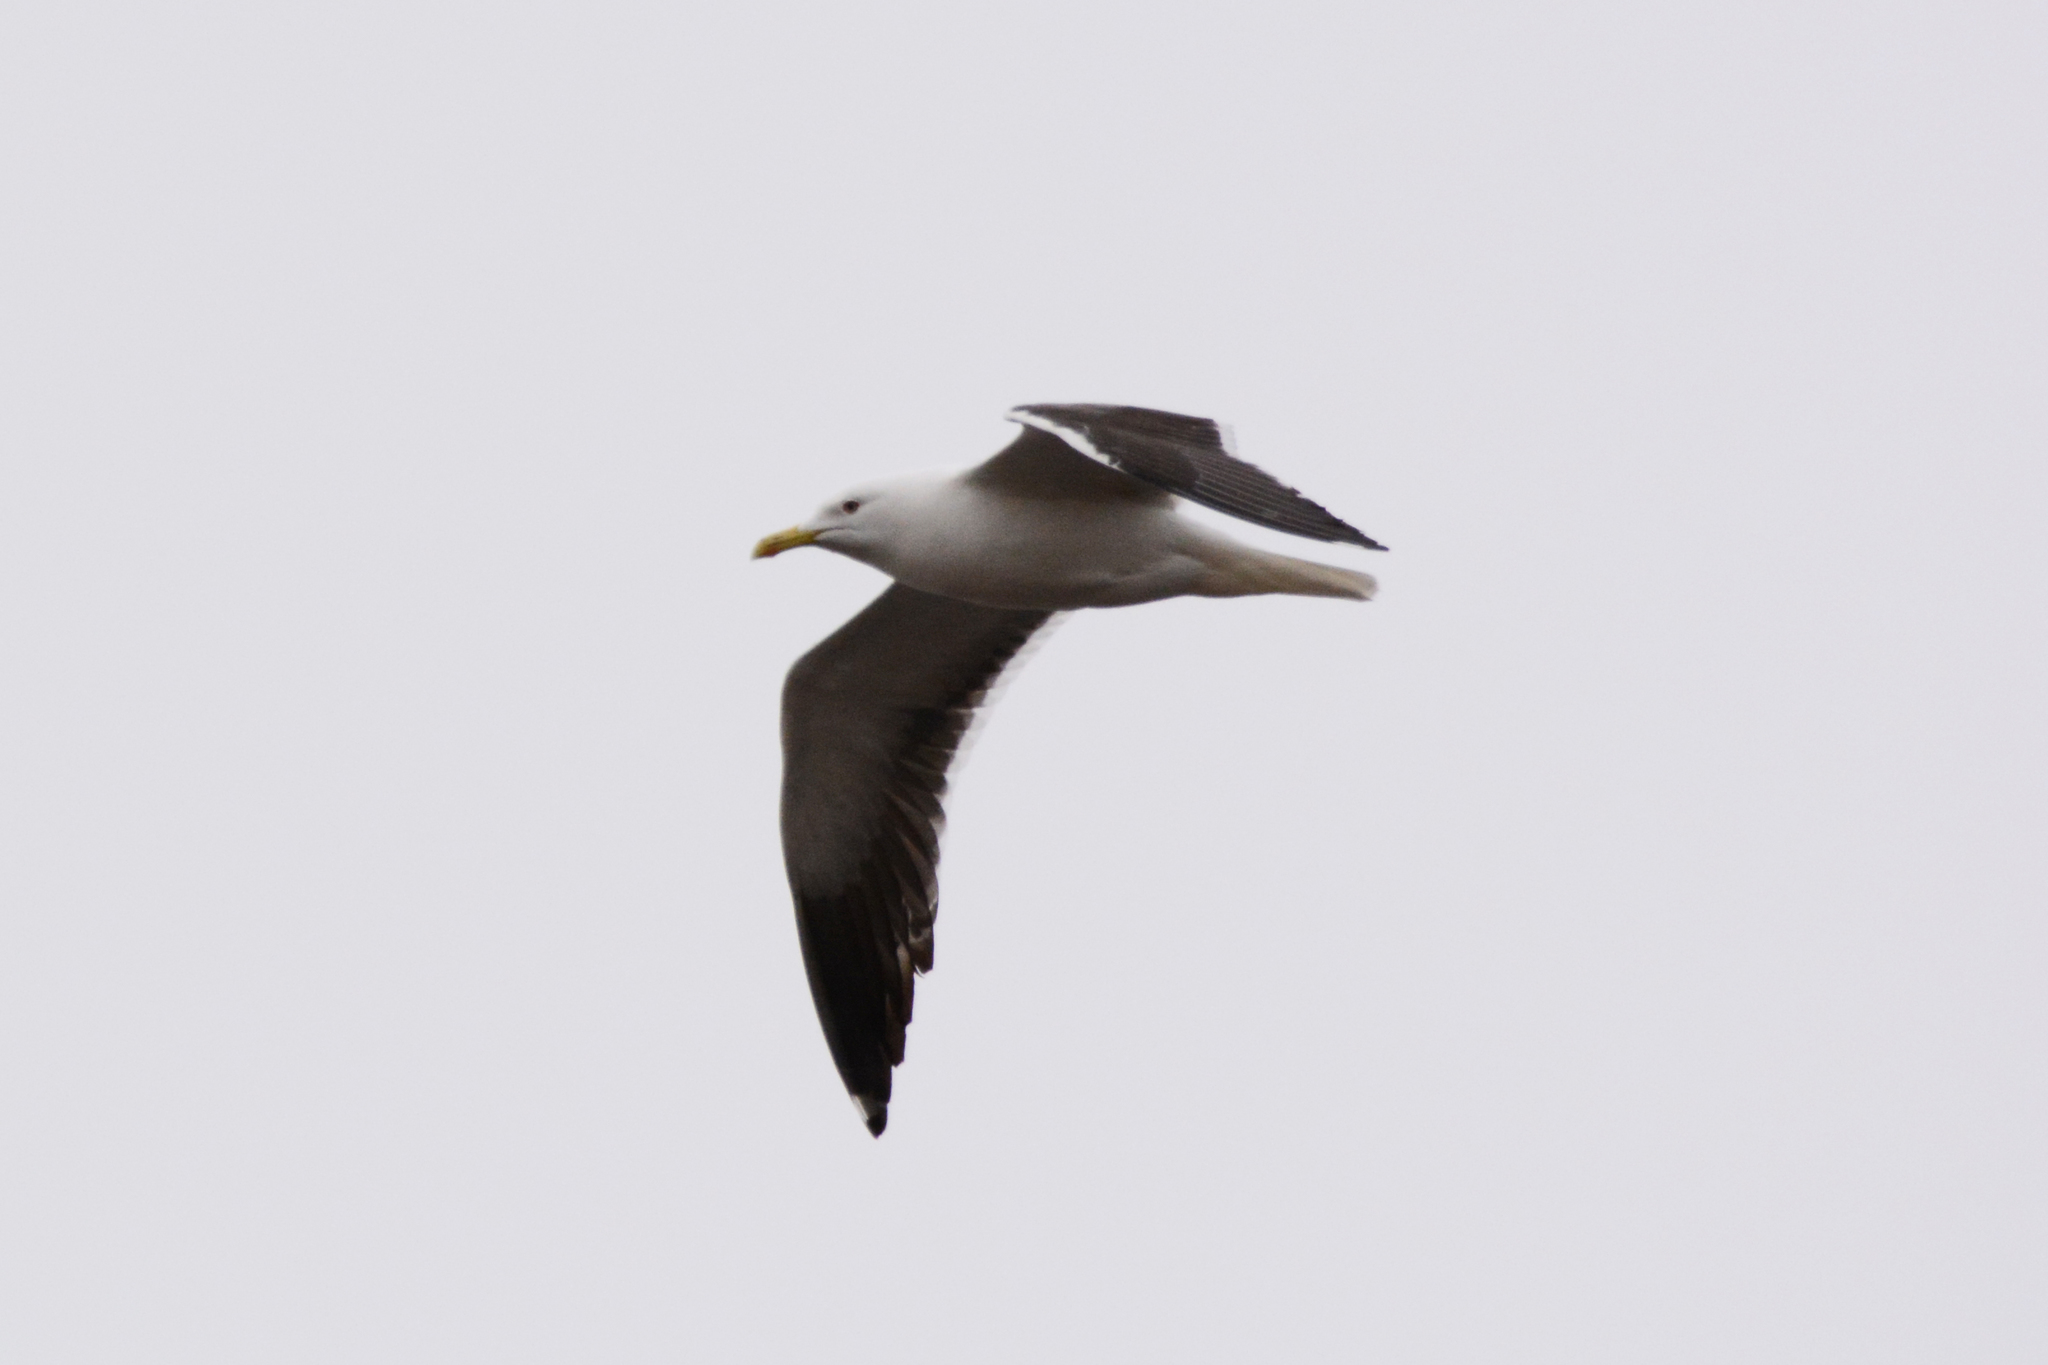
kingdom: Animalia
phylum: Chordata
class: Aves
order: Charadriiformes
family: Laridae
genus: Larus
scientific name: Larus fuscus
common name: Lesser black-backed gull
